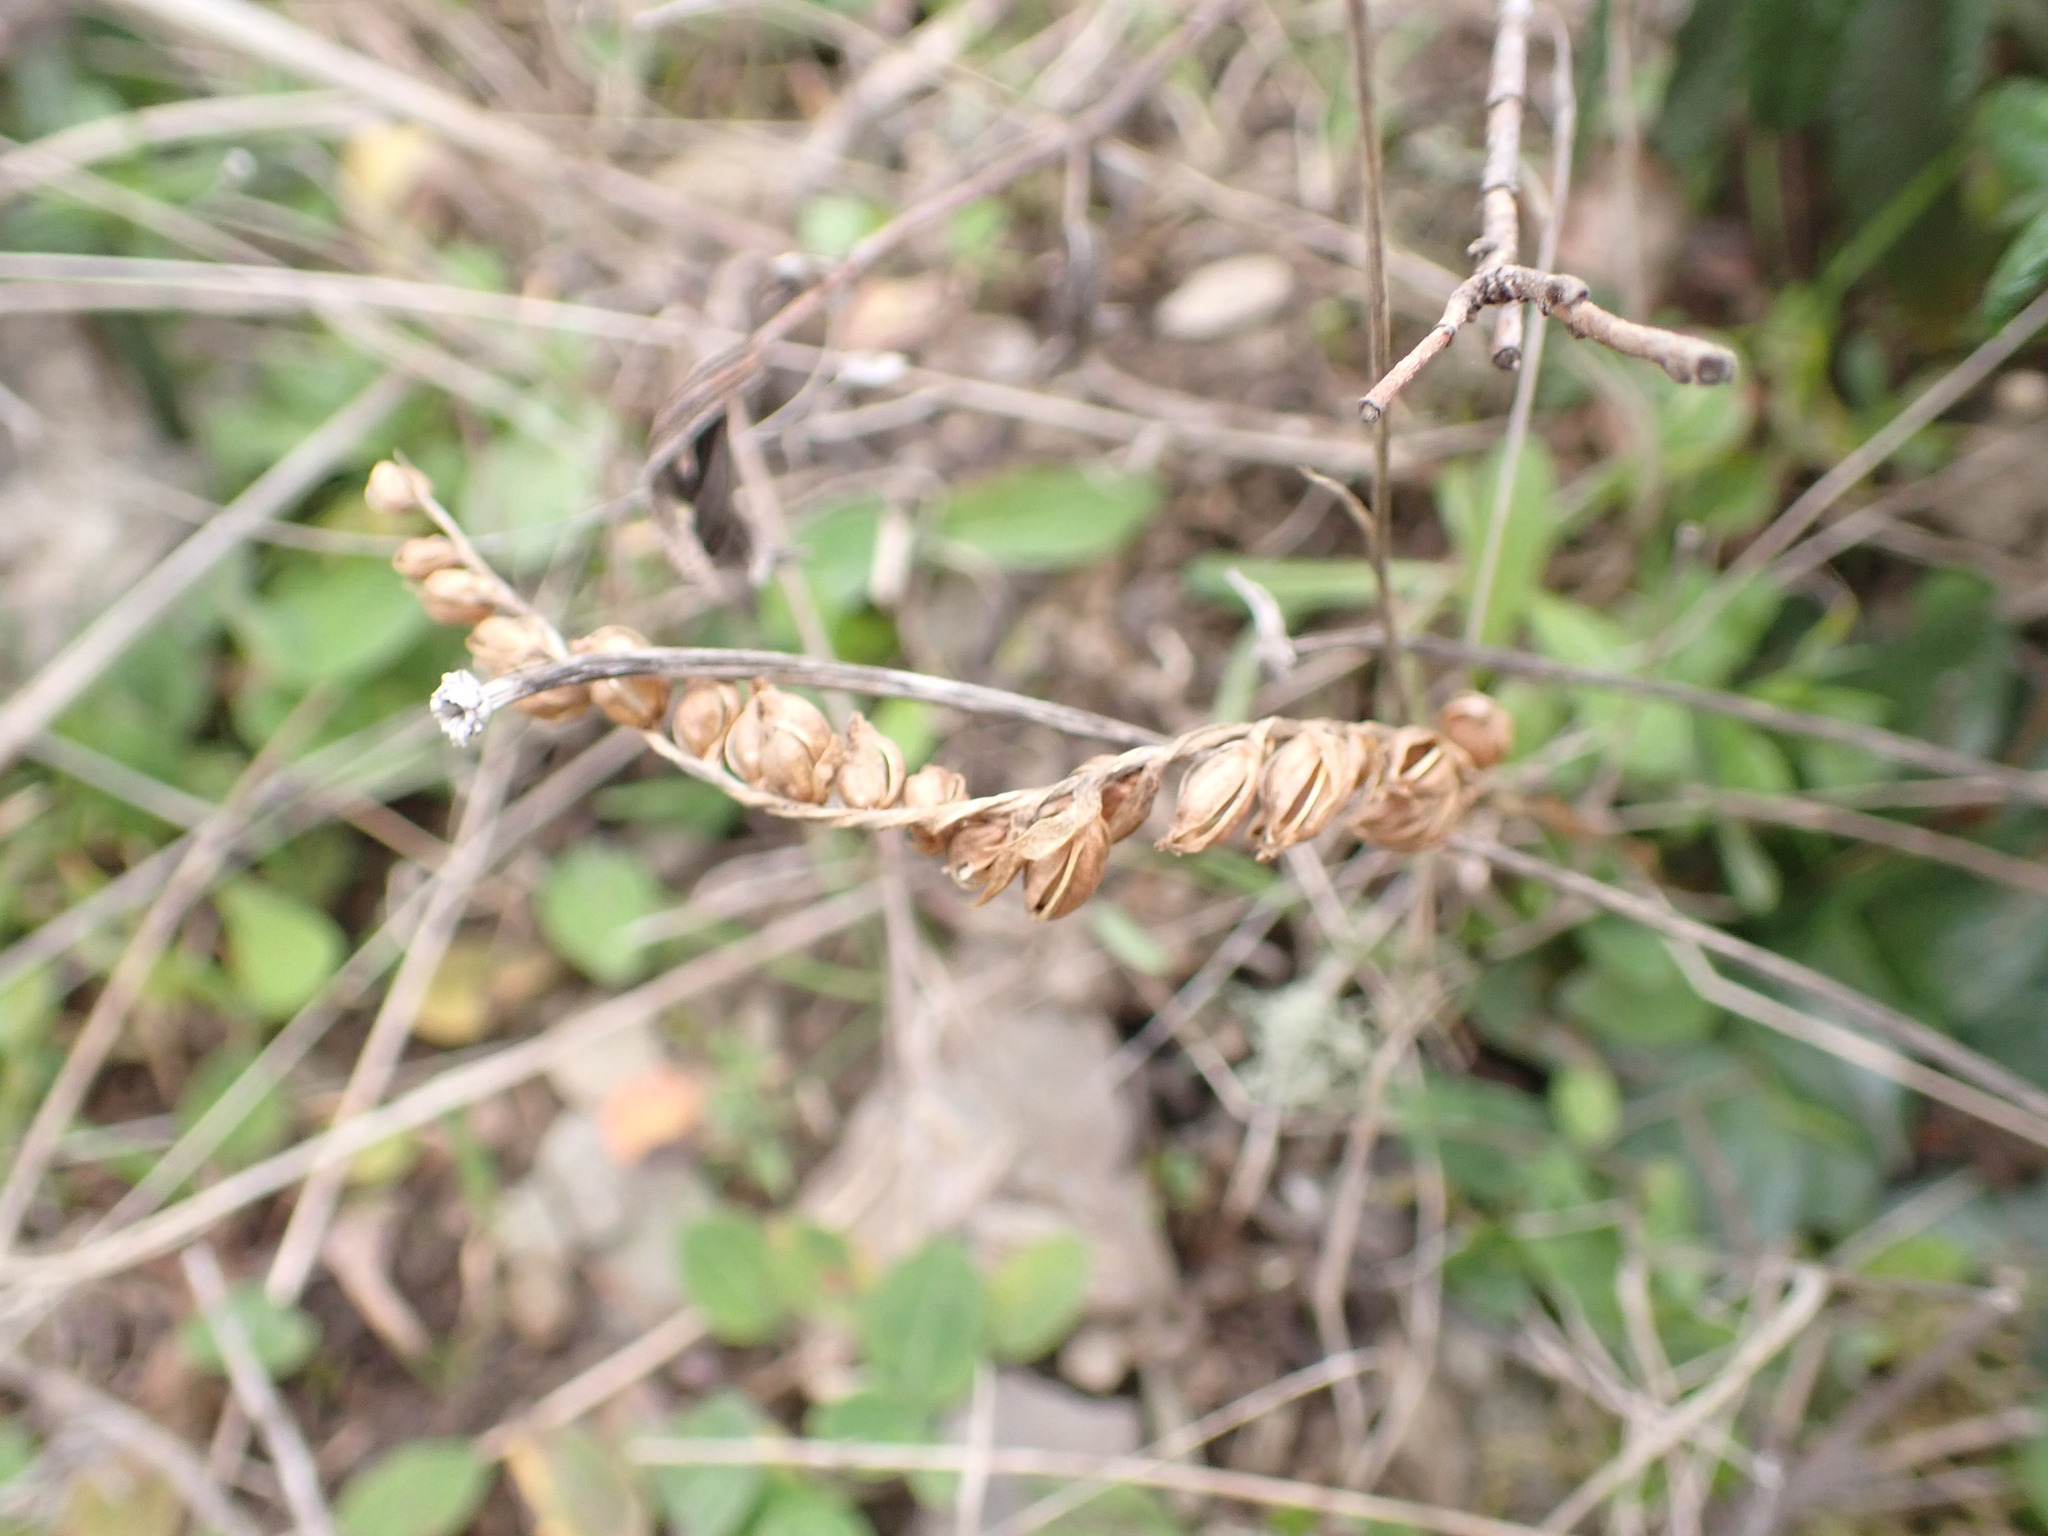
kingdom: Plantae
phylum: Tracheophyta
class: Liliopsida
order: Asparagales
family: Orchidaceae
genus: Spiranthes
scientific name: Spiranthes spiralis
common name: Autumn lady's-tresses
